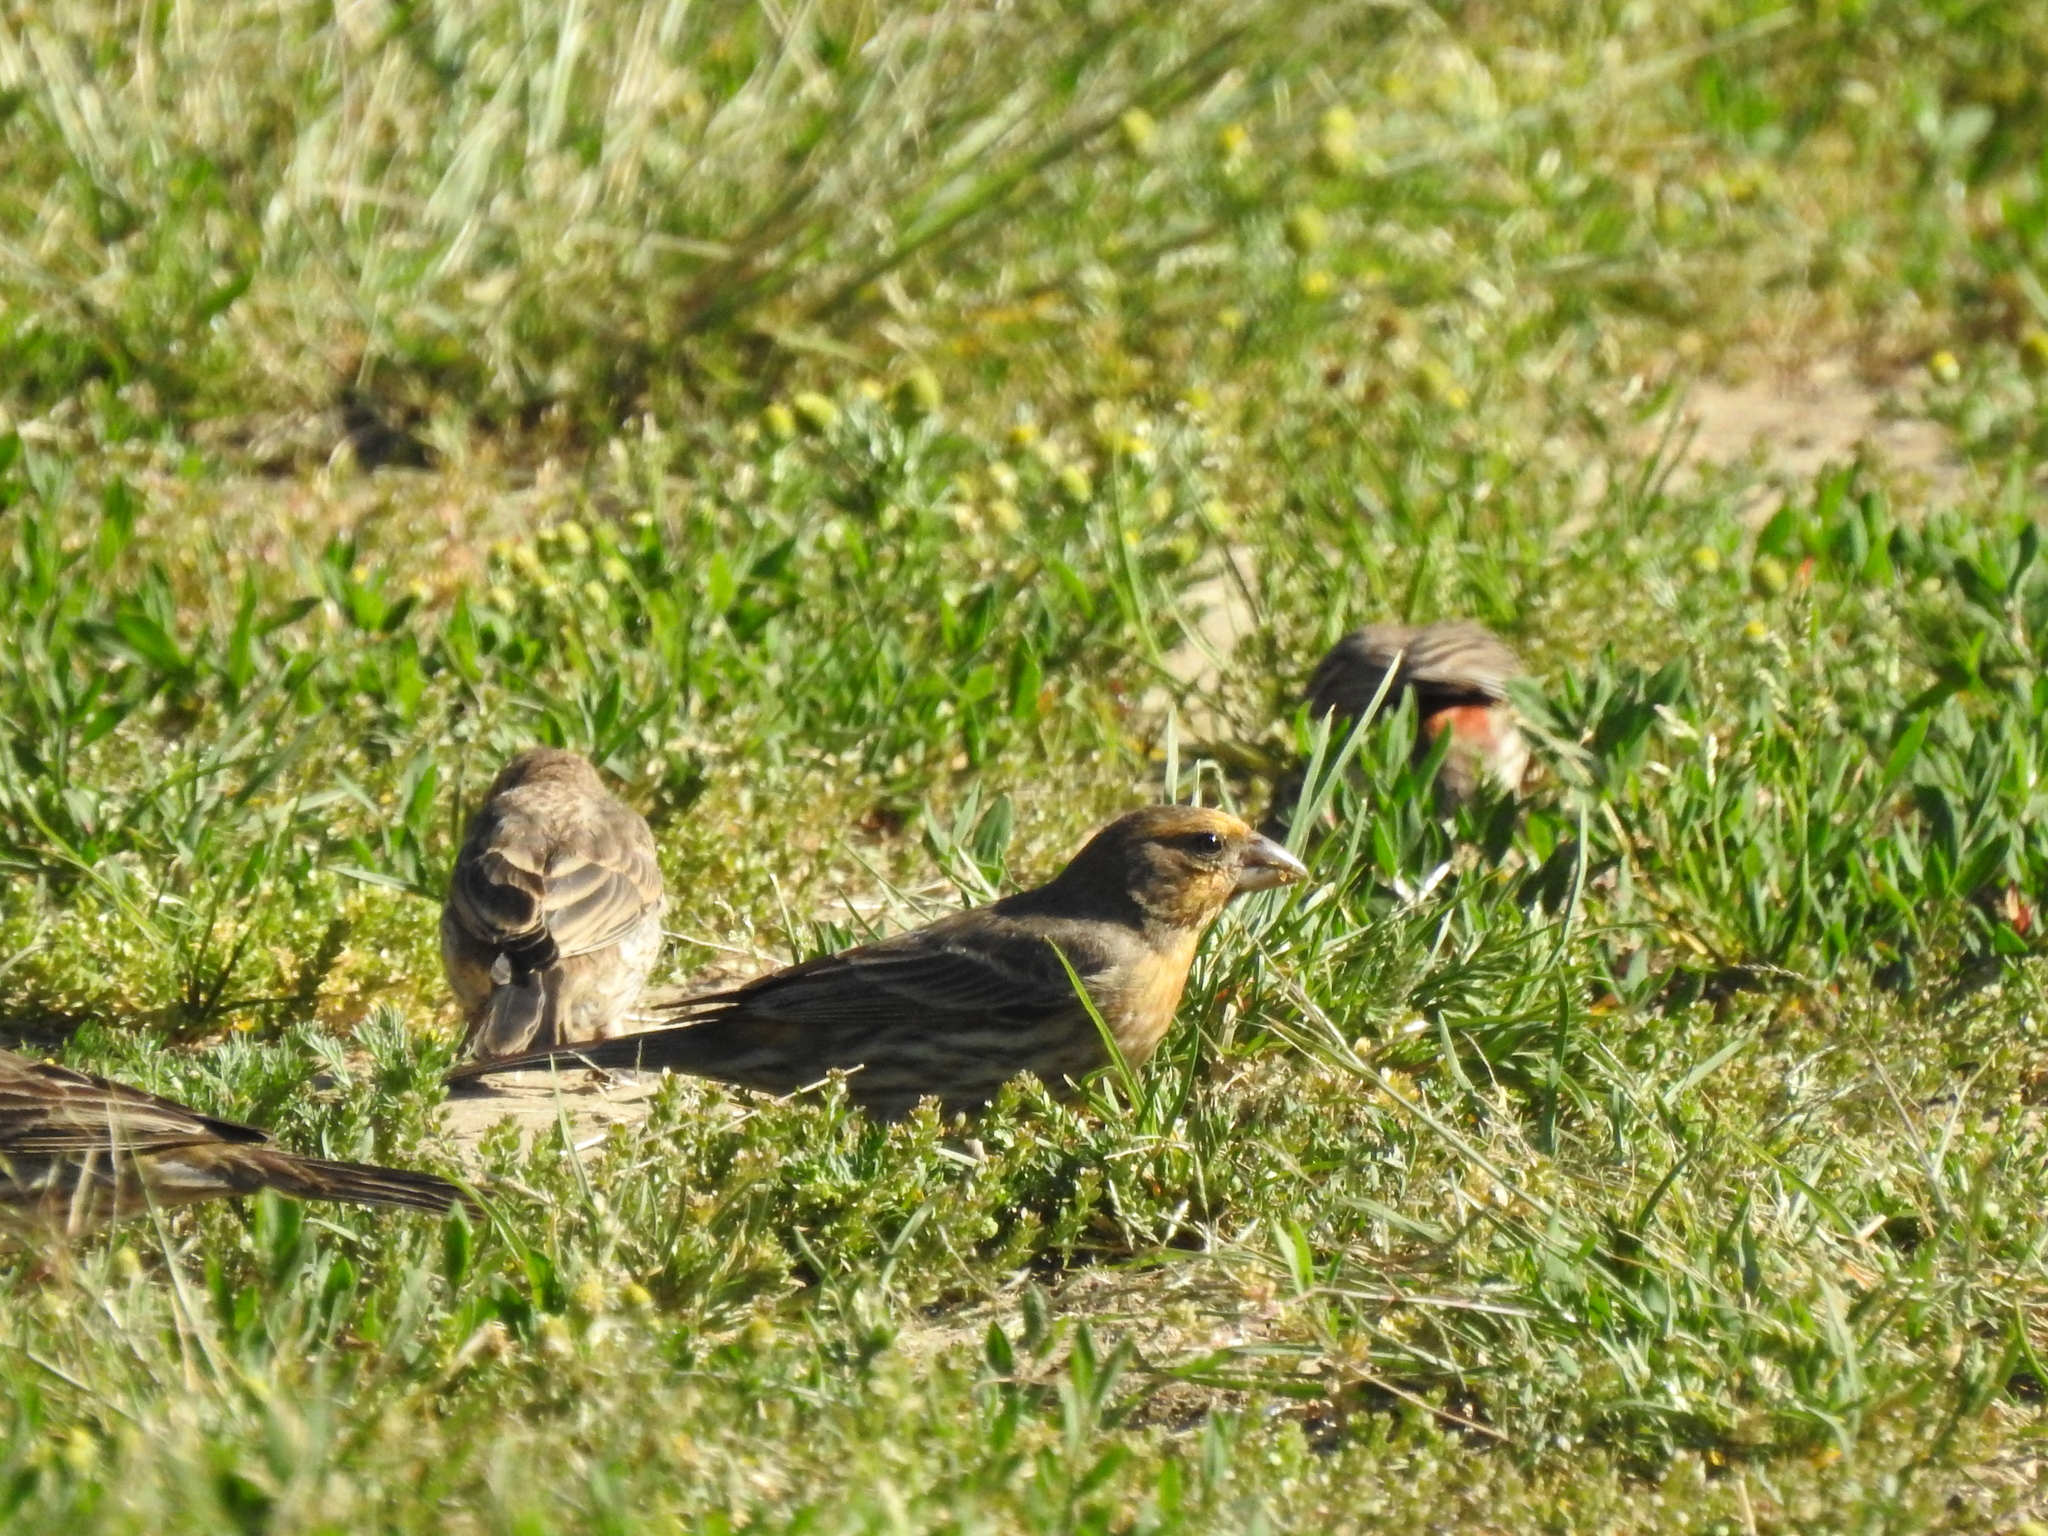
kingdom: Animalia
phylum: Chordata
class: Aves
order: Passeriformes
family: Fringillidae
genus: Haemorhous
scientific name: Haemorhous mexicanus
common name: House finch
